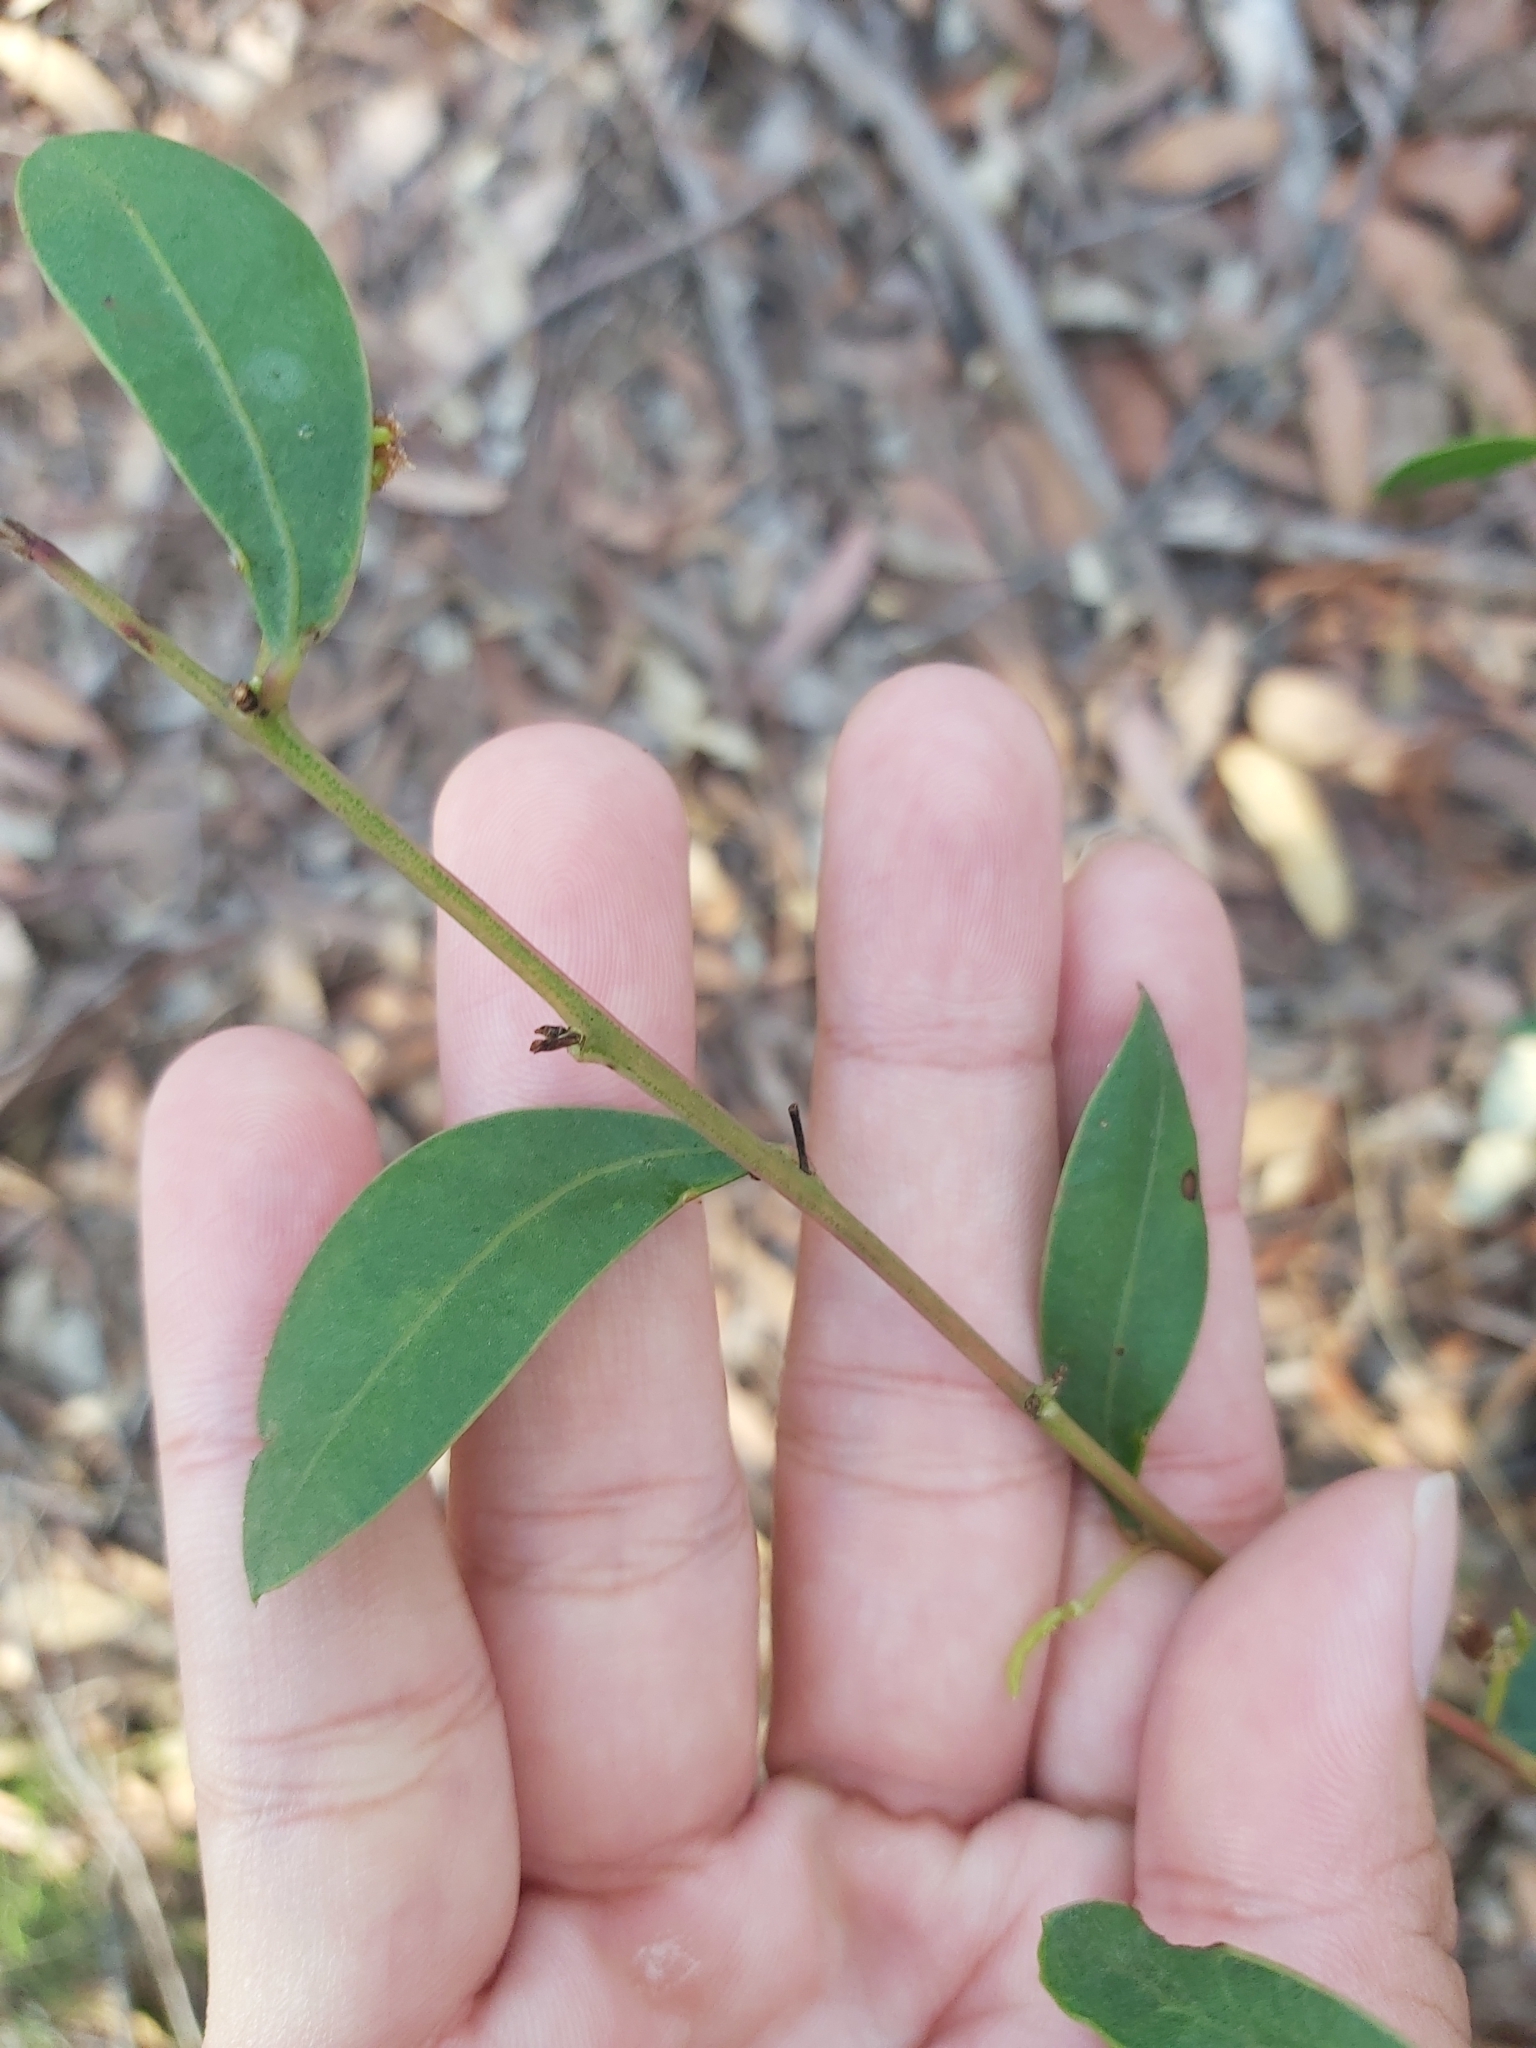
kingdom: Plantae
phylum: Tracheophyta
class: Magnoliopsida
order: Fabales
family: Fabaceae
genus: Acacia
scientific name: Acacia myrtifolia
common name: Myrtle wattle
